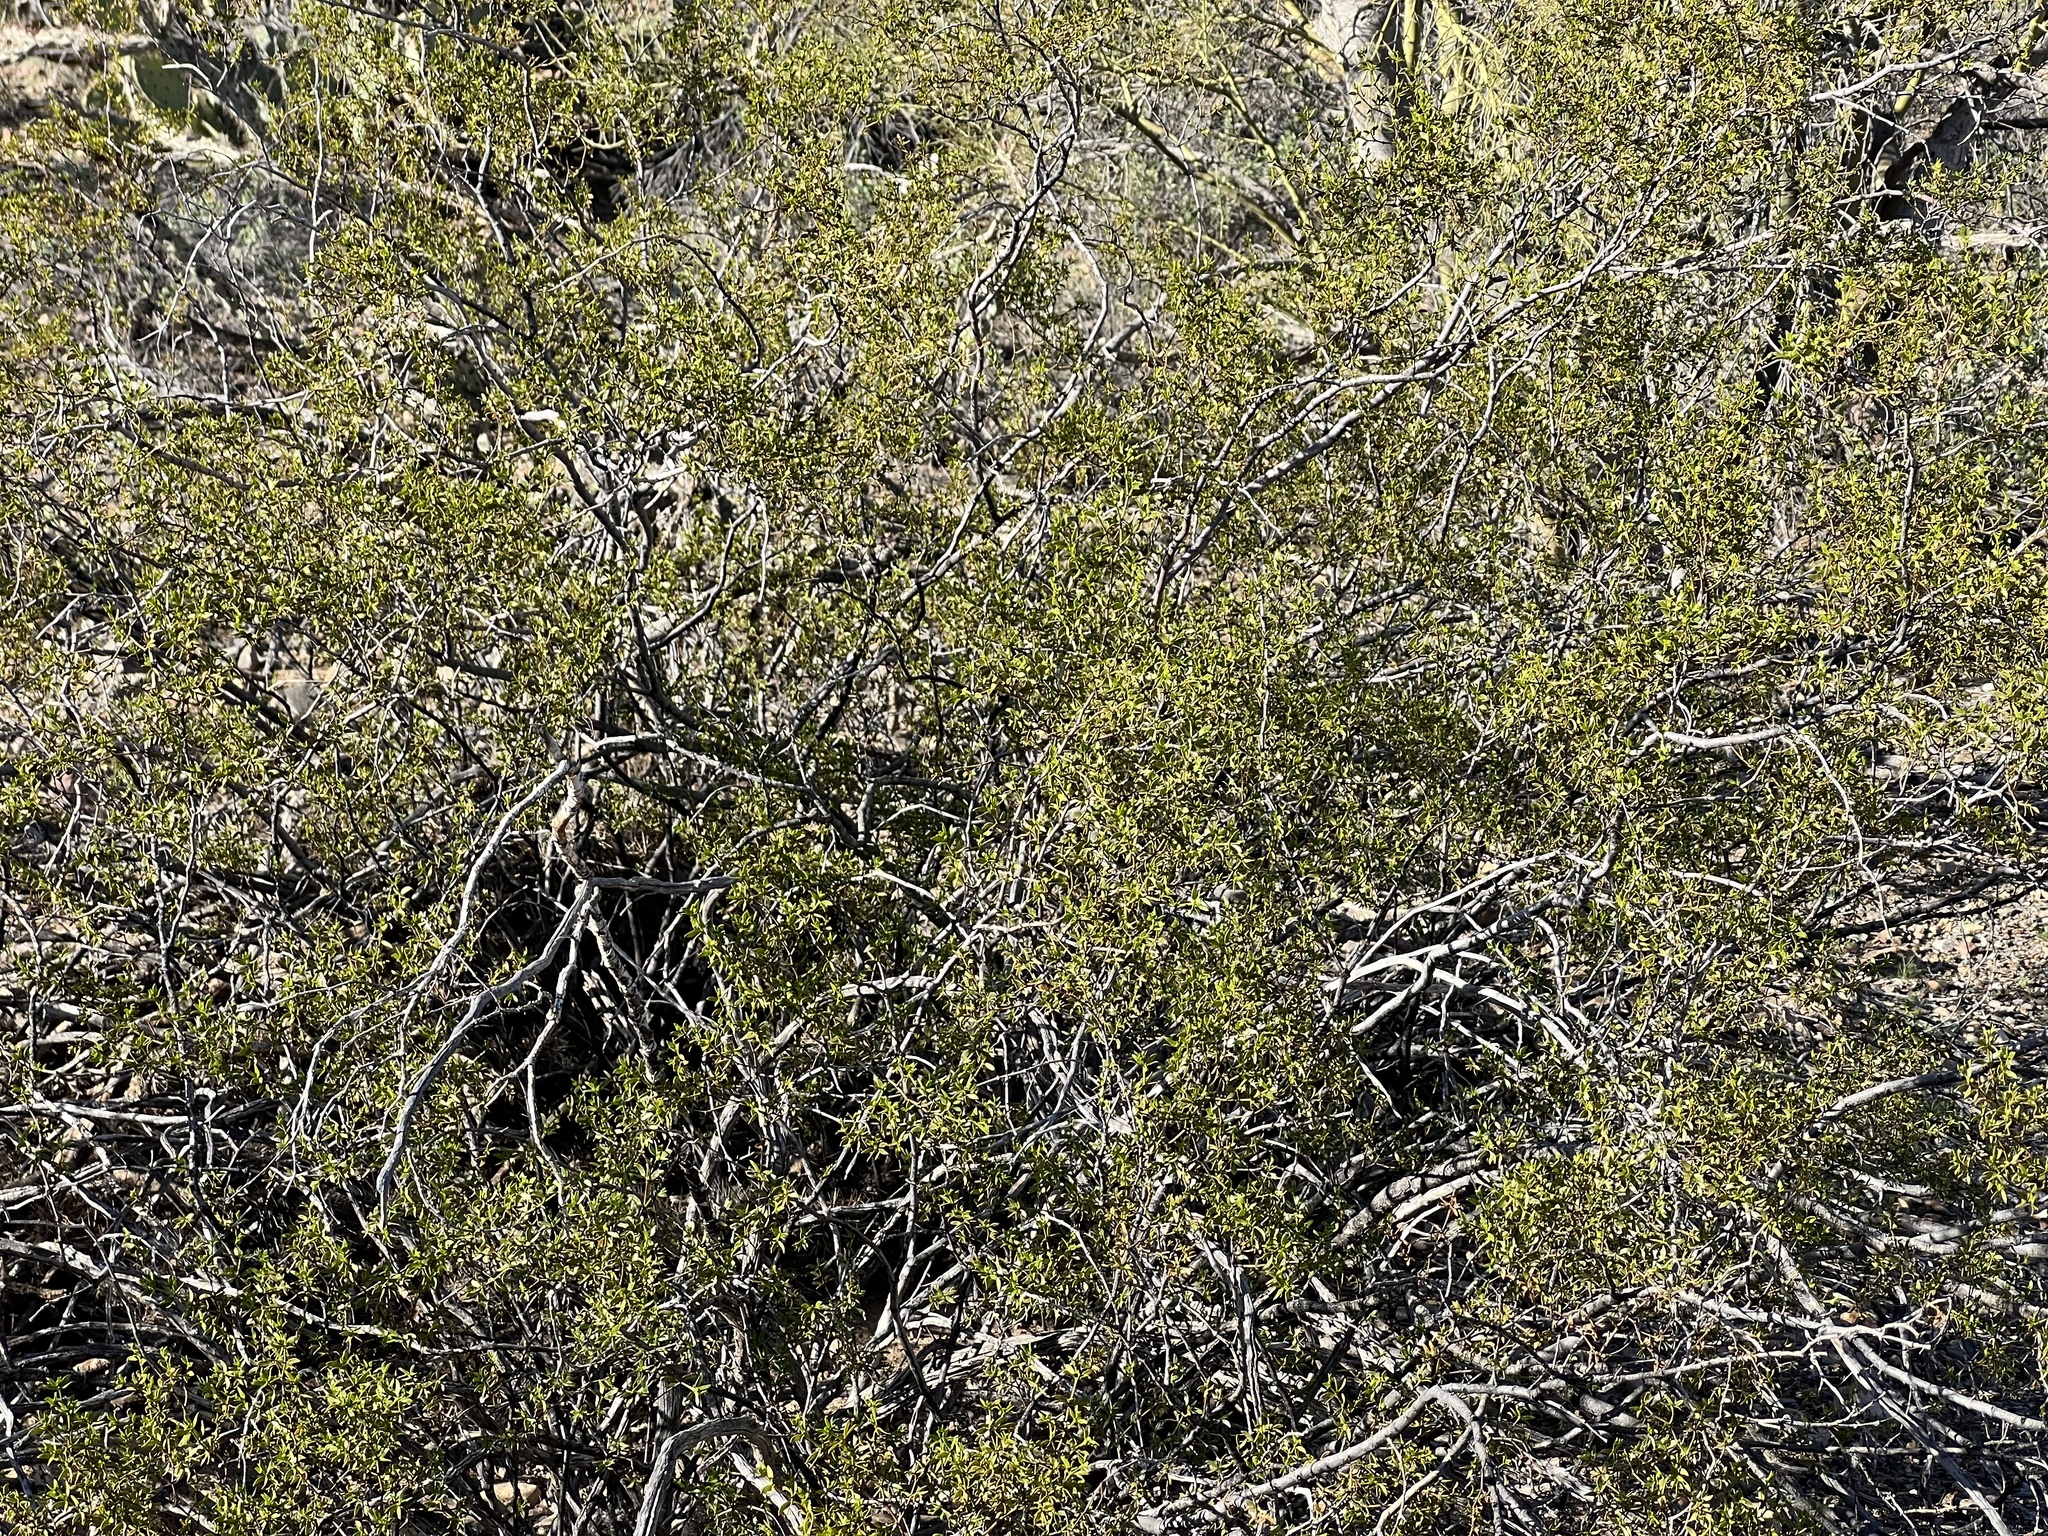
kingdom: Plantae
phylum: Tracheophyta
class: Magnoliopsida
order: Zygophyllales
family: Zygophyllaceae
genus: Larrea
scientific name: Larrea tridentata
